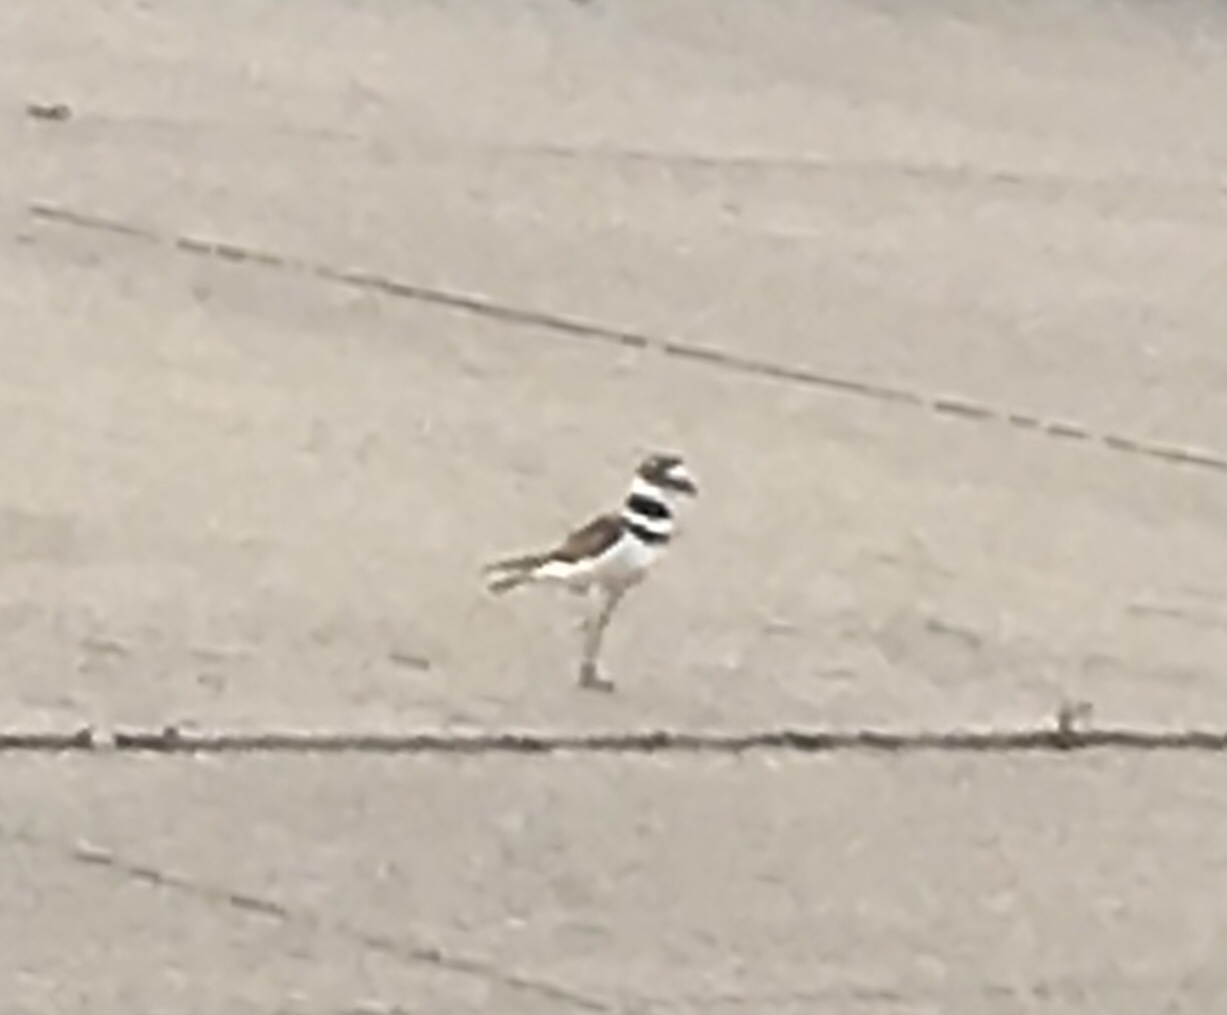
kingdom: Animalia
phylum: Chordata
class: Aves
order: Charadriiformes
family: Charadriidae
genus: Charadrius
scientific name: Charadrius vociferus
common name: Killdeer
